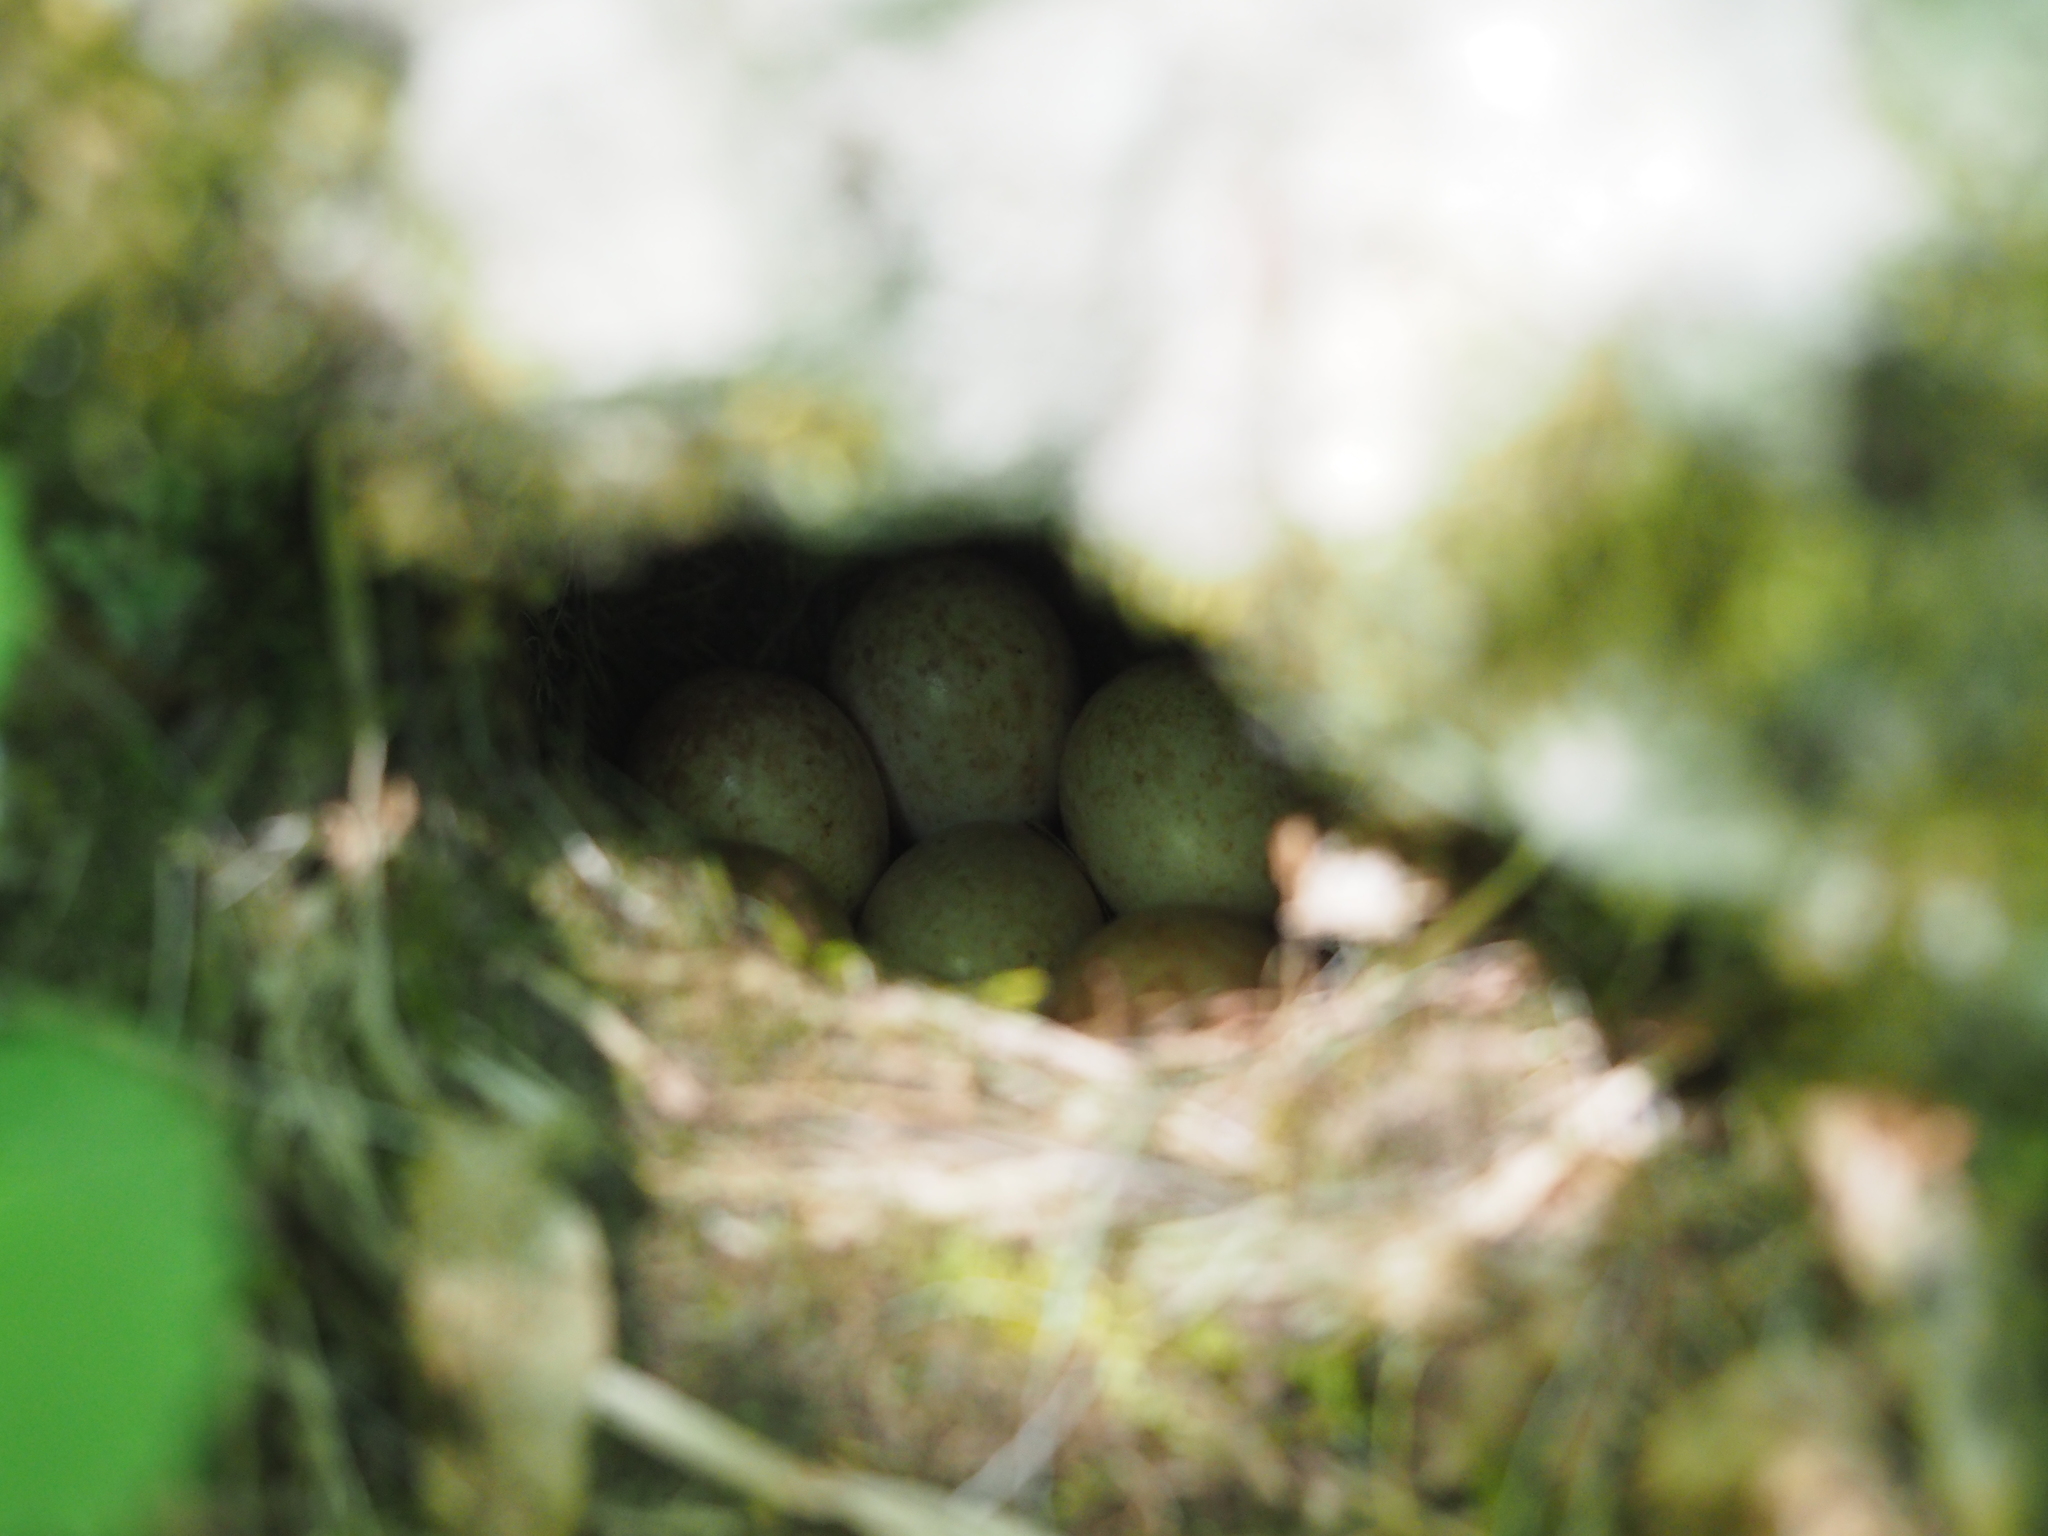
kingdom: Animalia
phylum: Chordata
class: Aves
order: Passeriformes
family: Muscicapidae
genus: Erithacus
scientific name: Erithacus rubecula
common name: European robin
